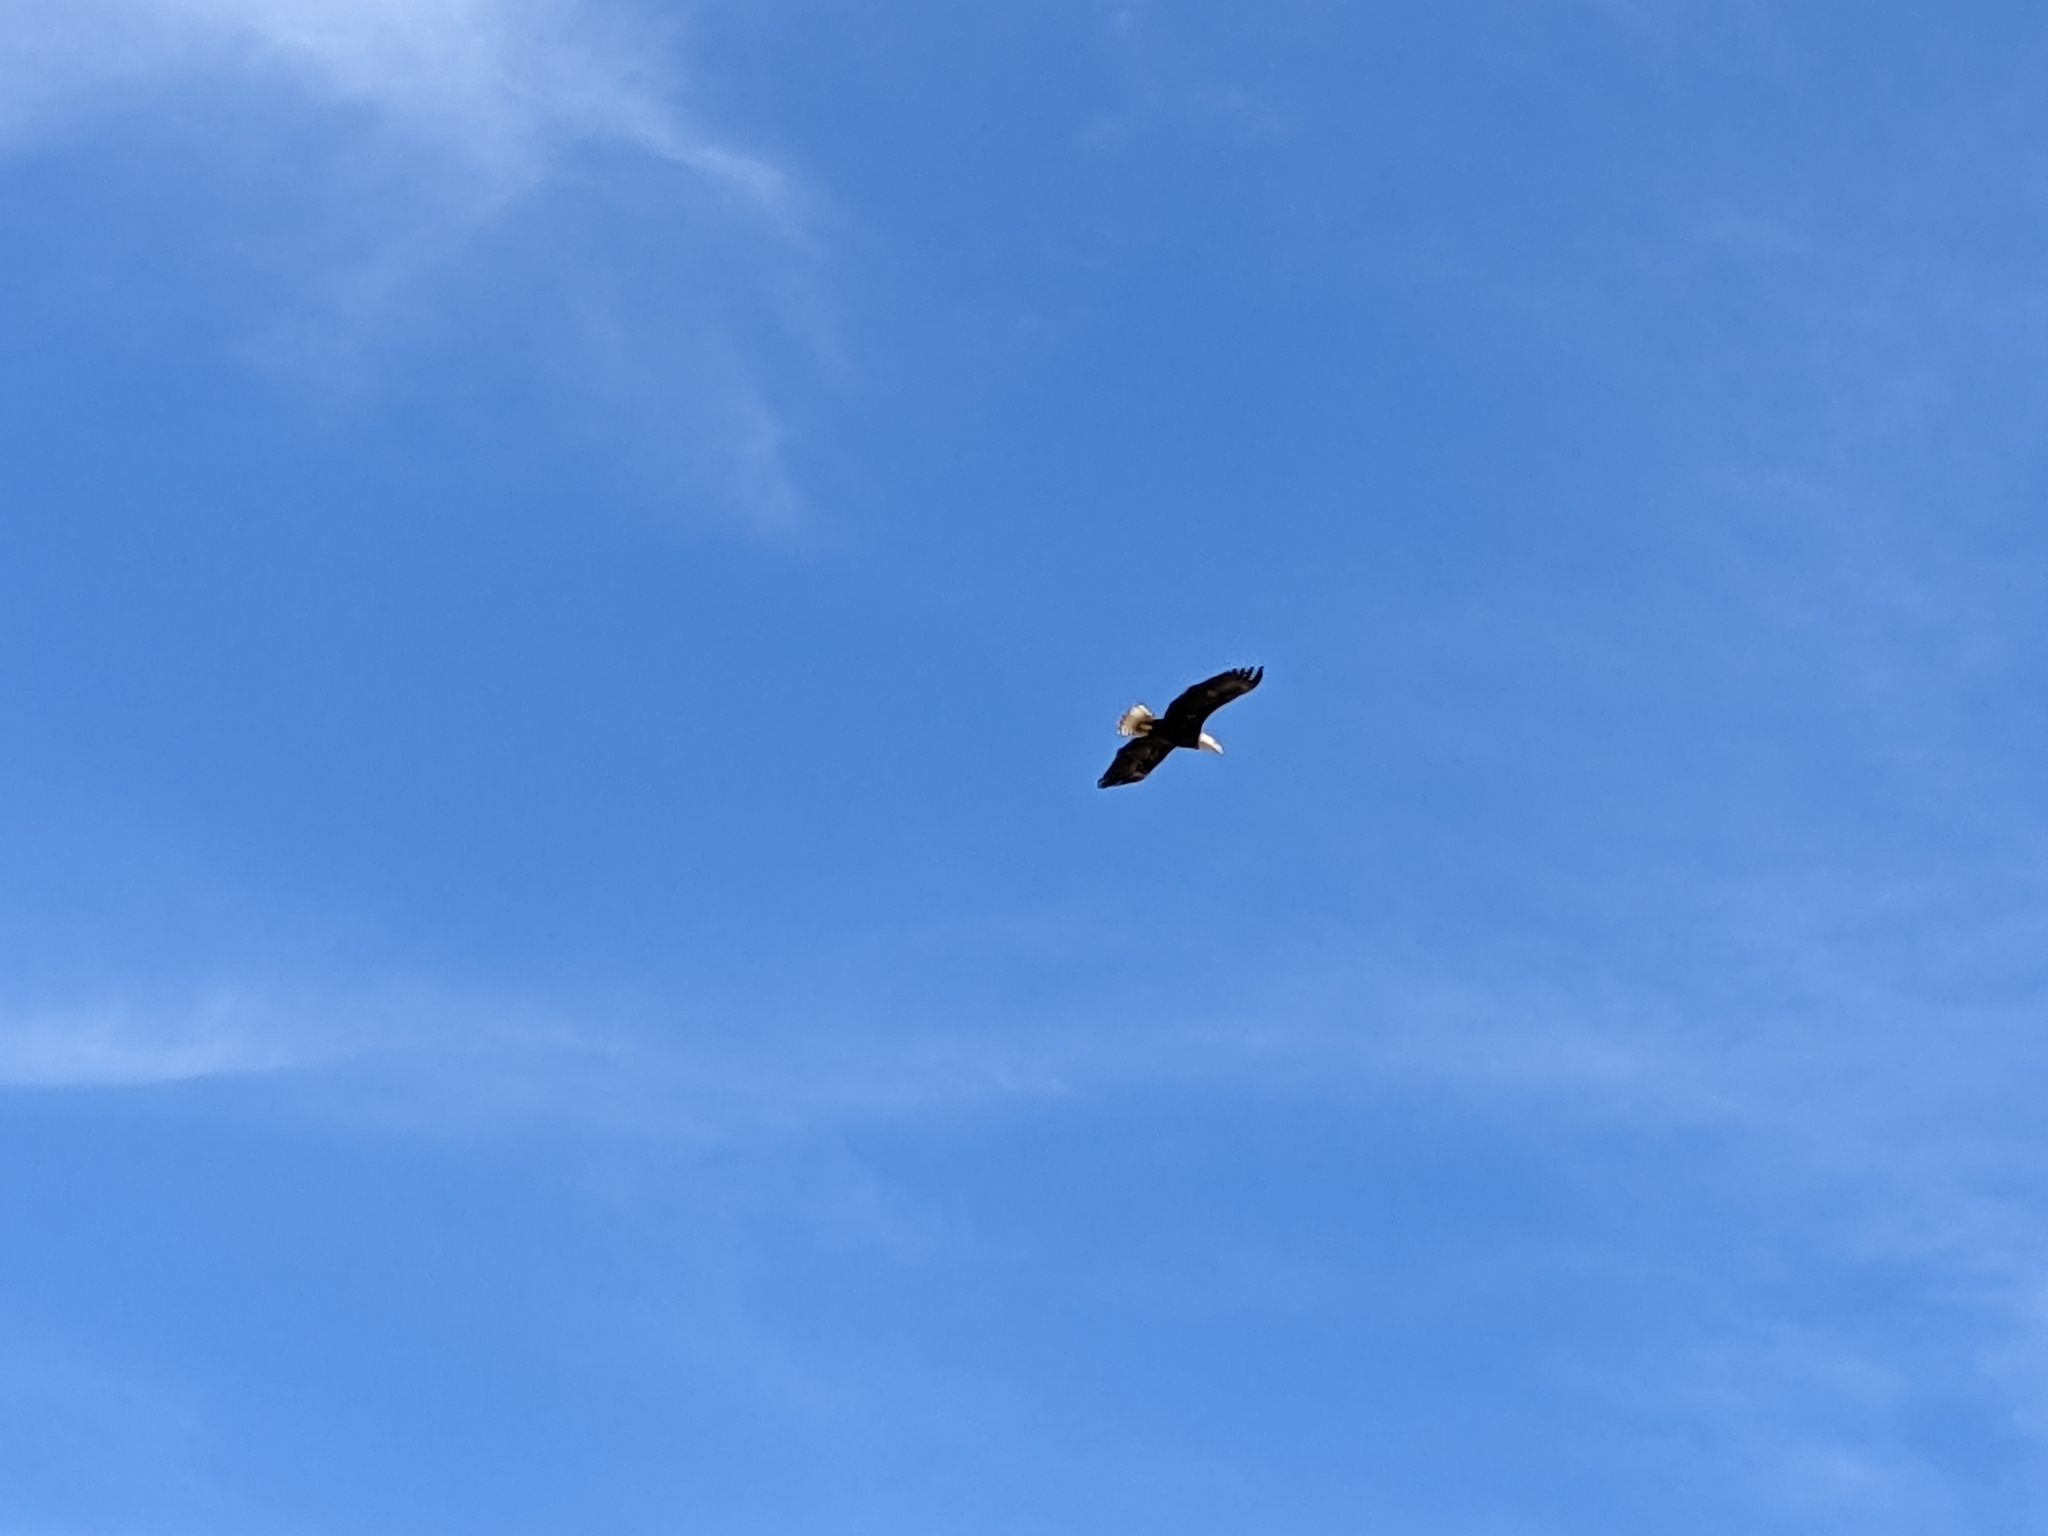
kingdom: Animalia
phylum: Chordata
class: Aves
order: Accipitriformes
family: Accipitridae
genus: Haliaeetus
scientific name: Haliaeetus leucocephalus
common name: Bald eagle
